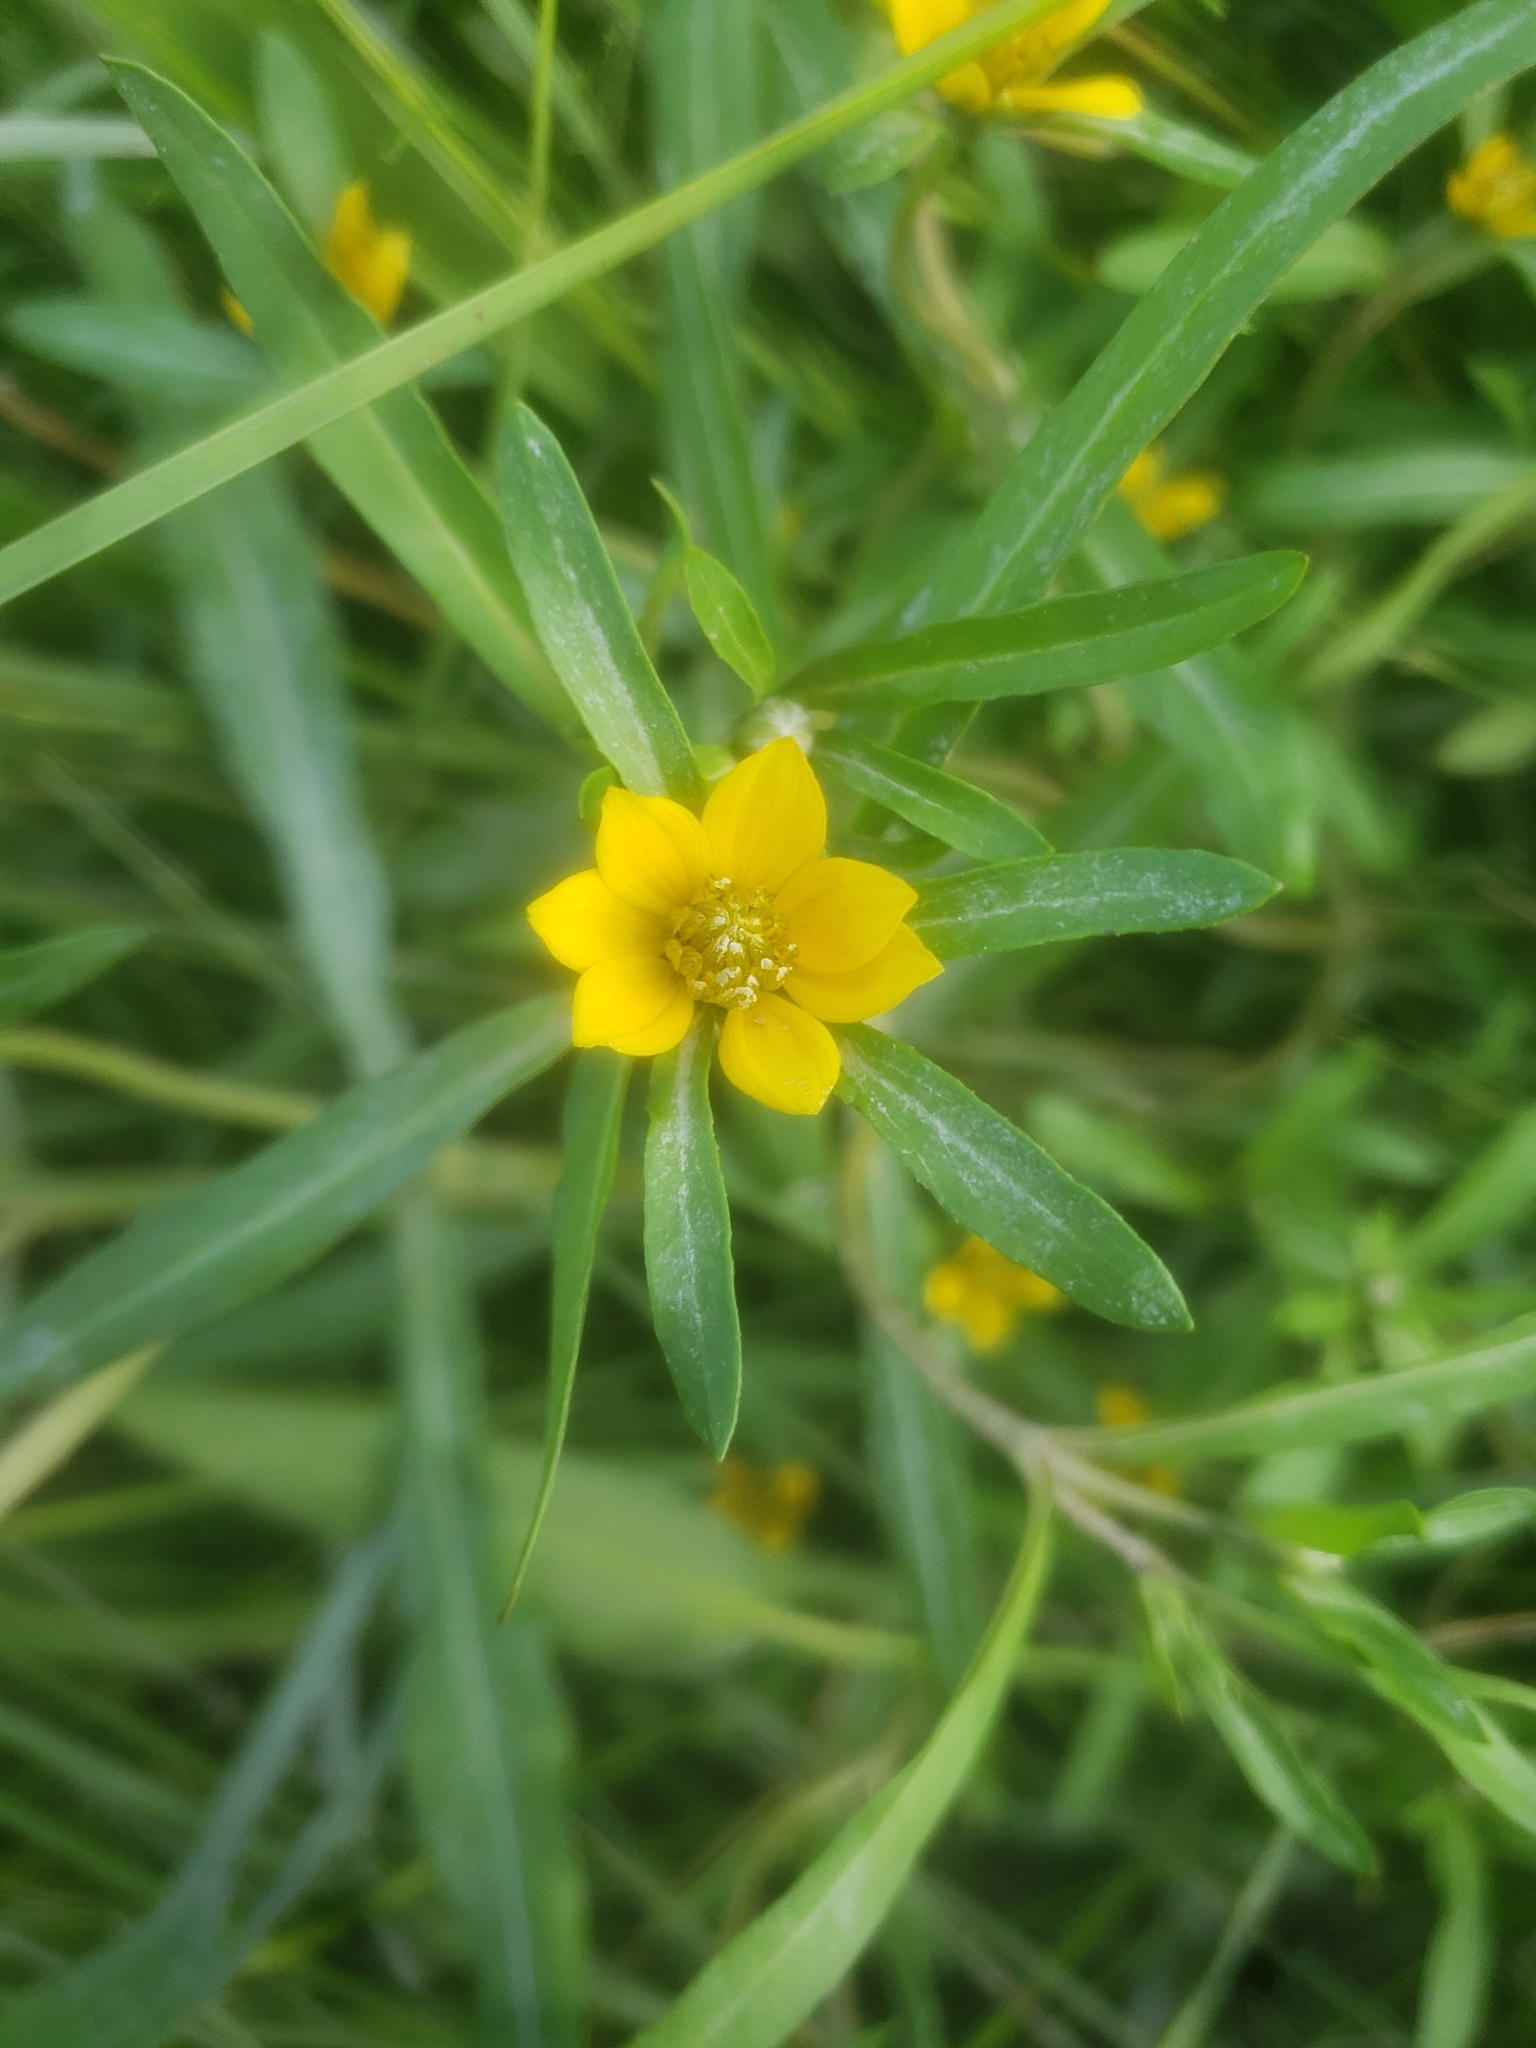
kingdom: Plantae
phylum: Tracheophyta
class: Magnoliopsida
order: Asterales
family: Asteraceae
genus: Bidens
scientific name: Bidens hyperborea
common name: Coastal beggarticks
